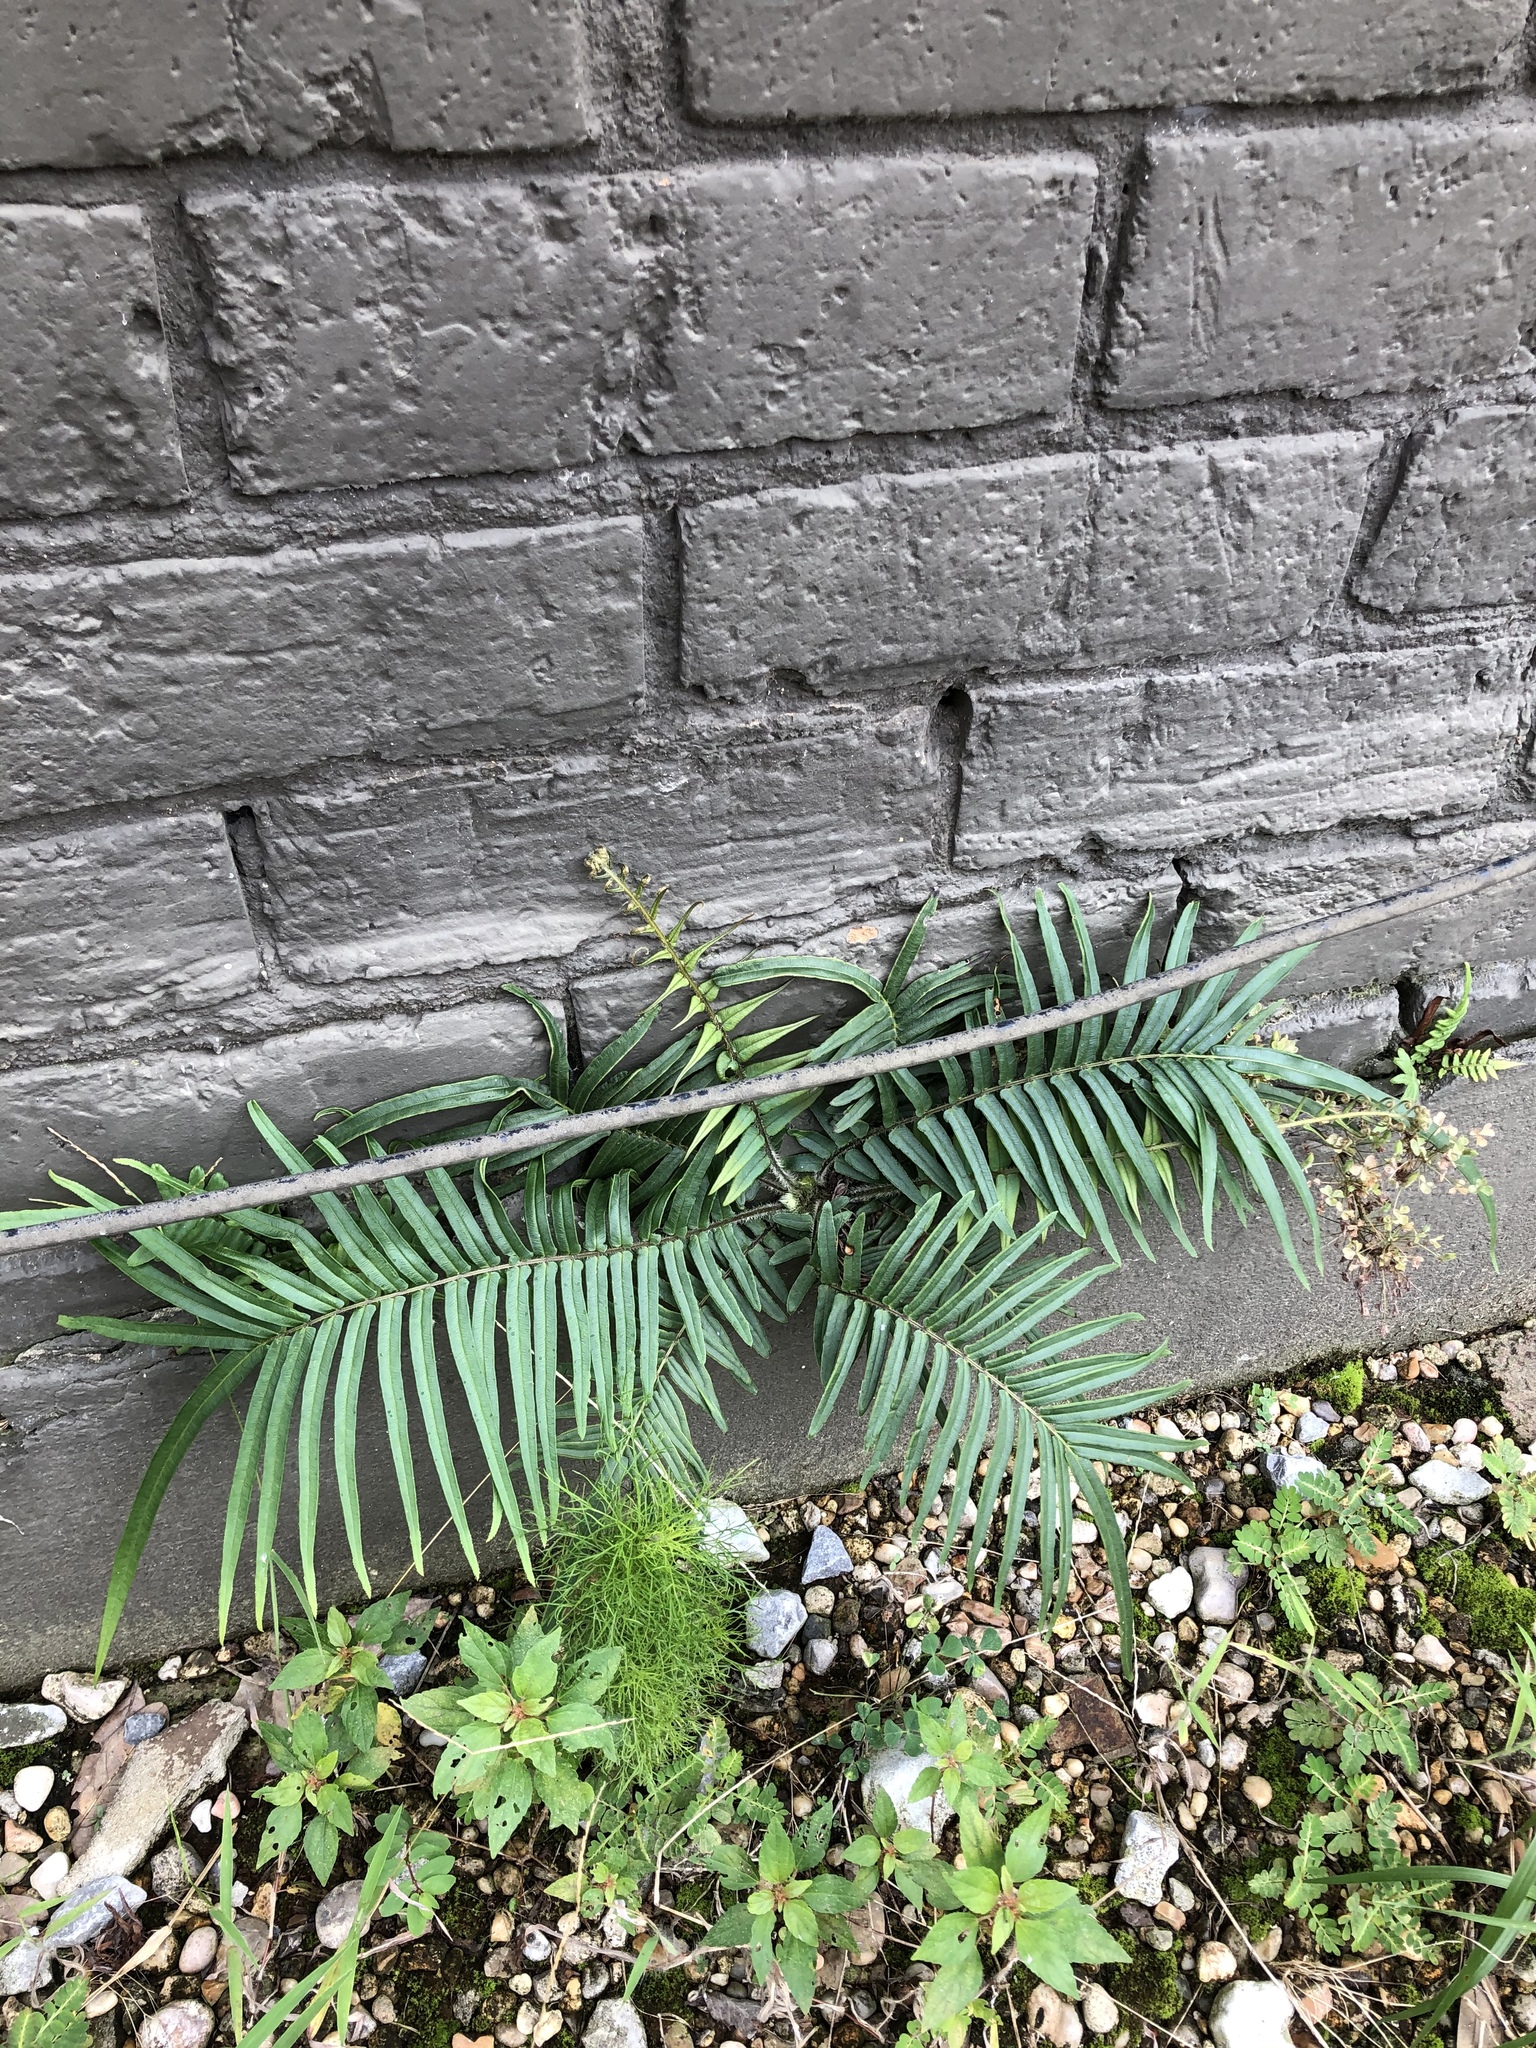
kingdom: Plantae
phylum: Tracheophyta
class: Polypodiopsida
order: Polypodiales
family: Pteridaceae
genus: Pteris
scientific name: Pteris vittata
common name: Ladder brake
